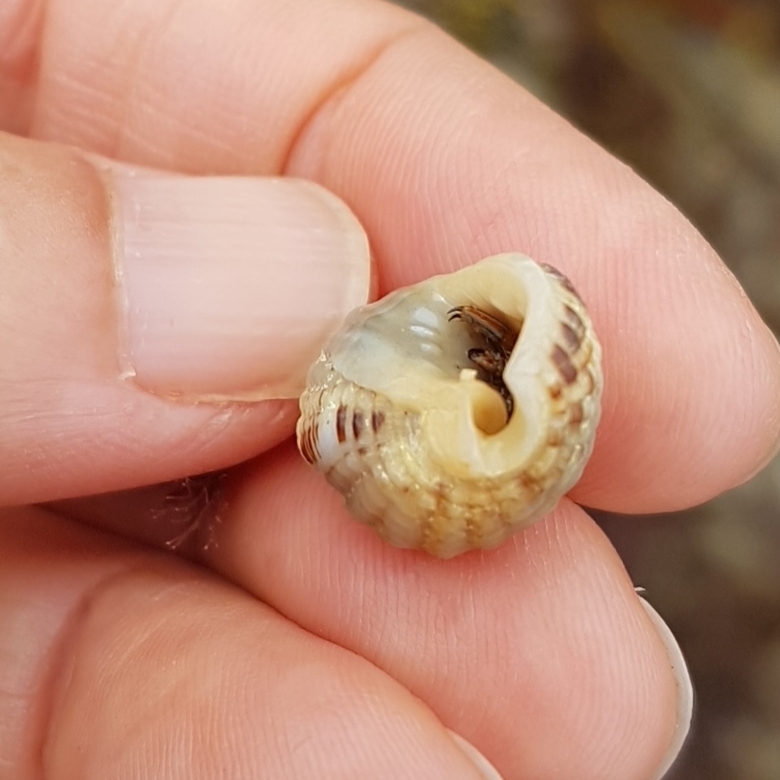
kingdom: Animalia
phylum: Mollusca
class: Gastropoda
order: Neogastropoda
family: Nassariidae
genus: Tritia
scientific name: Tritia reticulata
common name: Netted dog whelk
